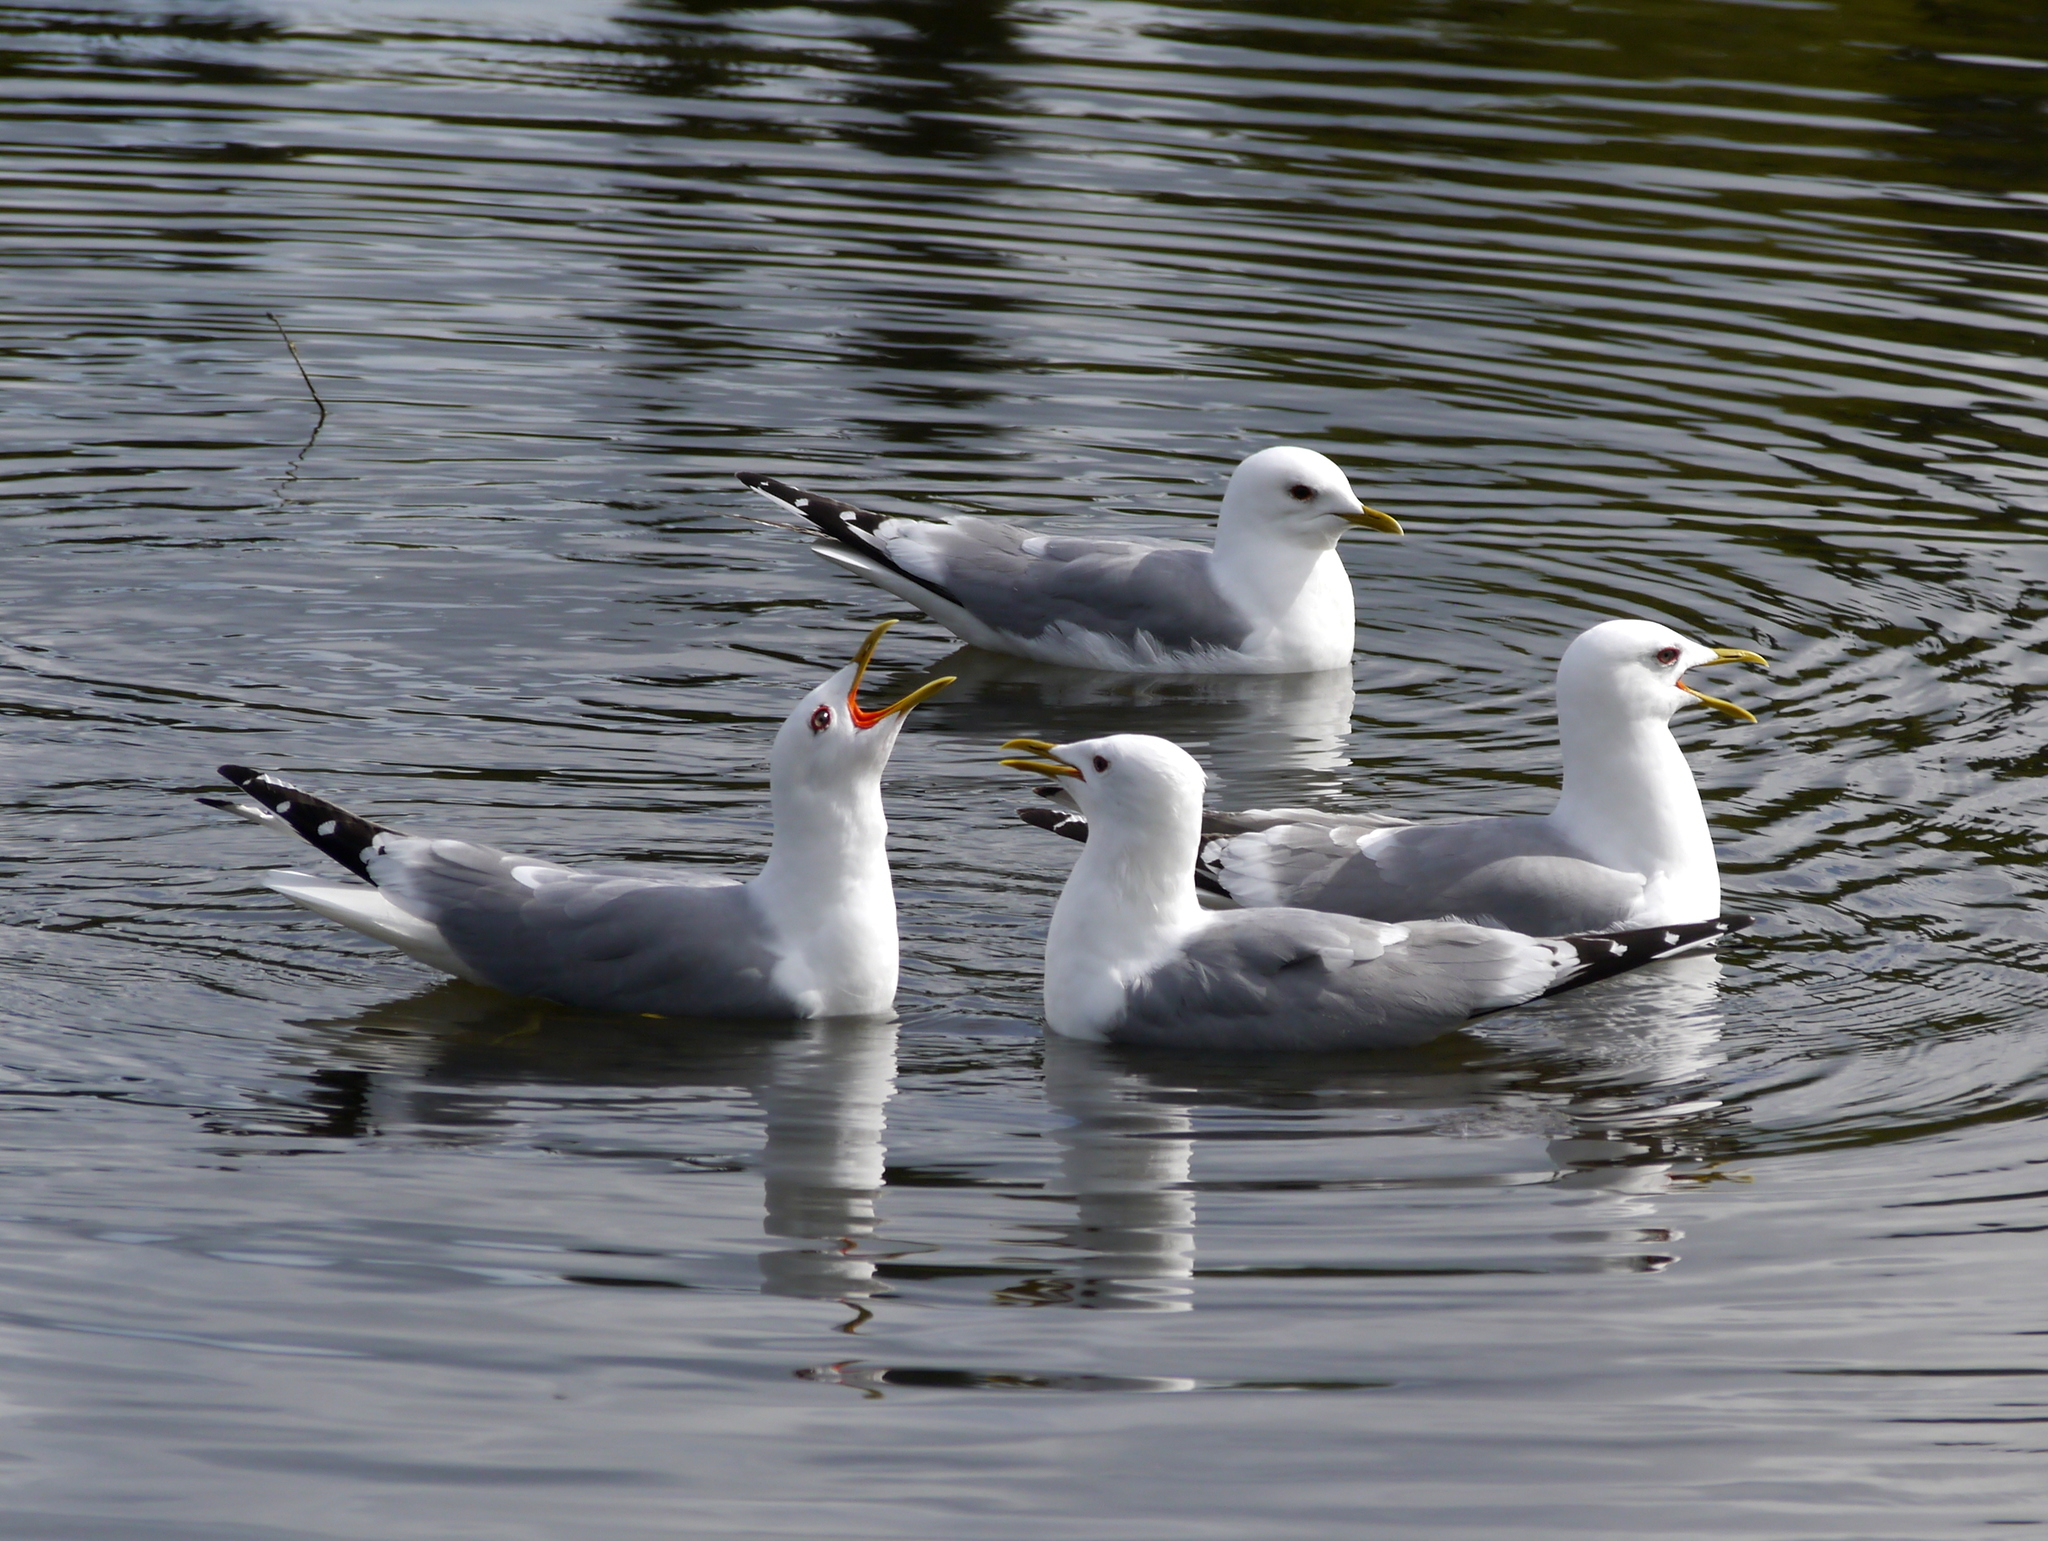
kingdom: Animalia
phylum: Chordata
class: Aves
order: Charadriiformes
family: Laridae
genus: Larus
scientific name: Larus brachyrhynchus
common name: Short-billed gull
